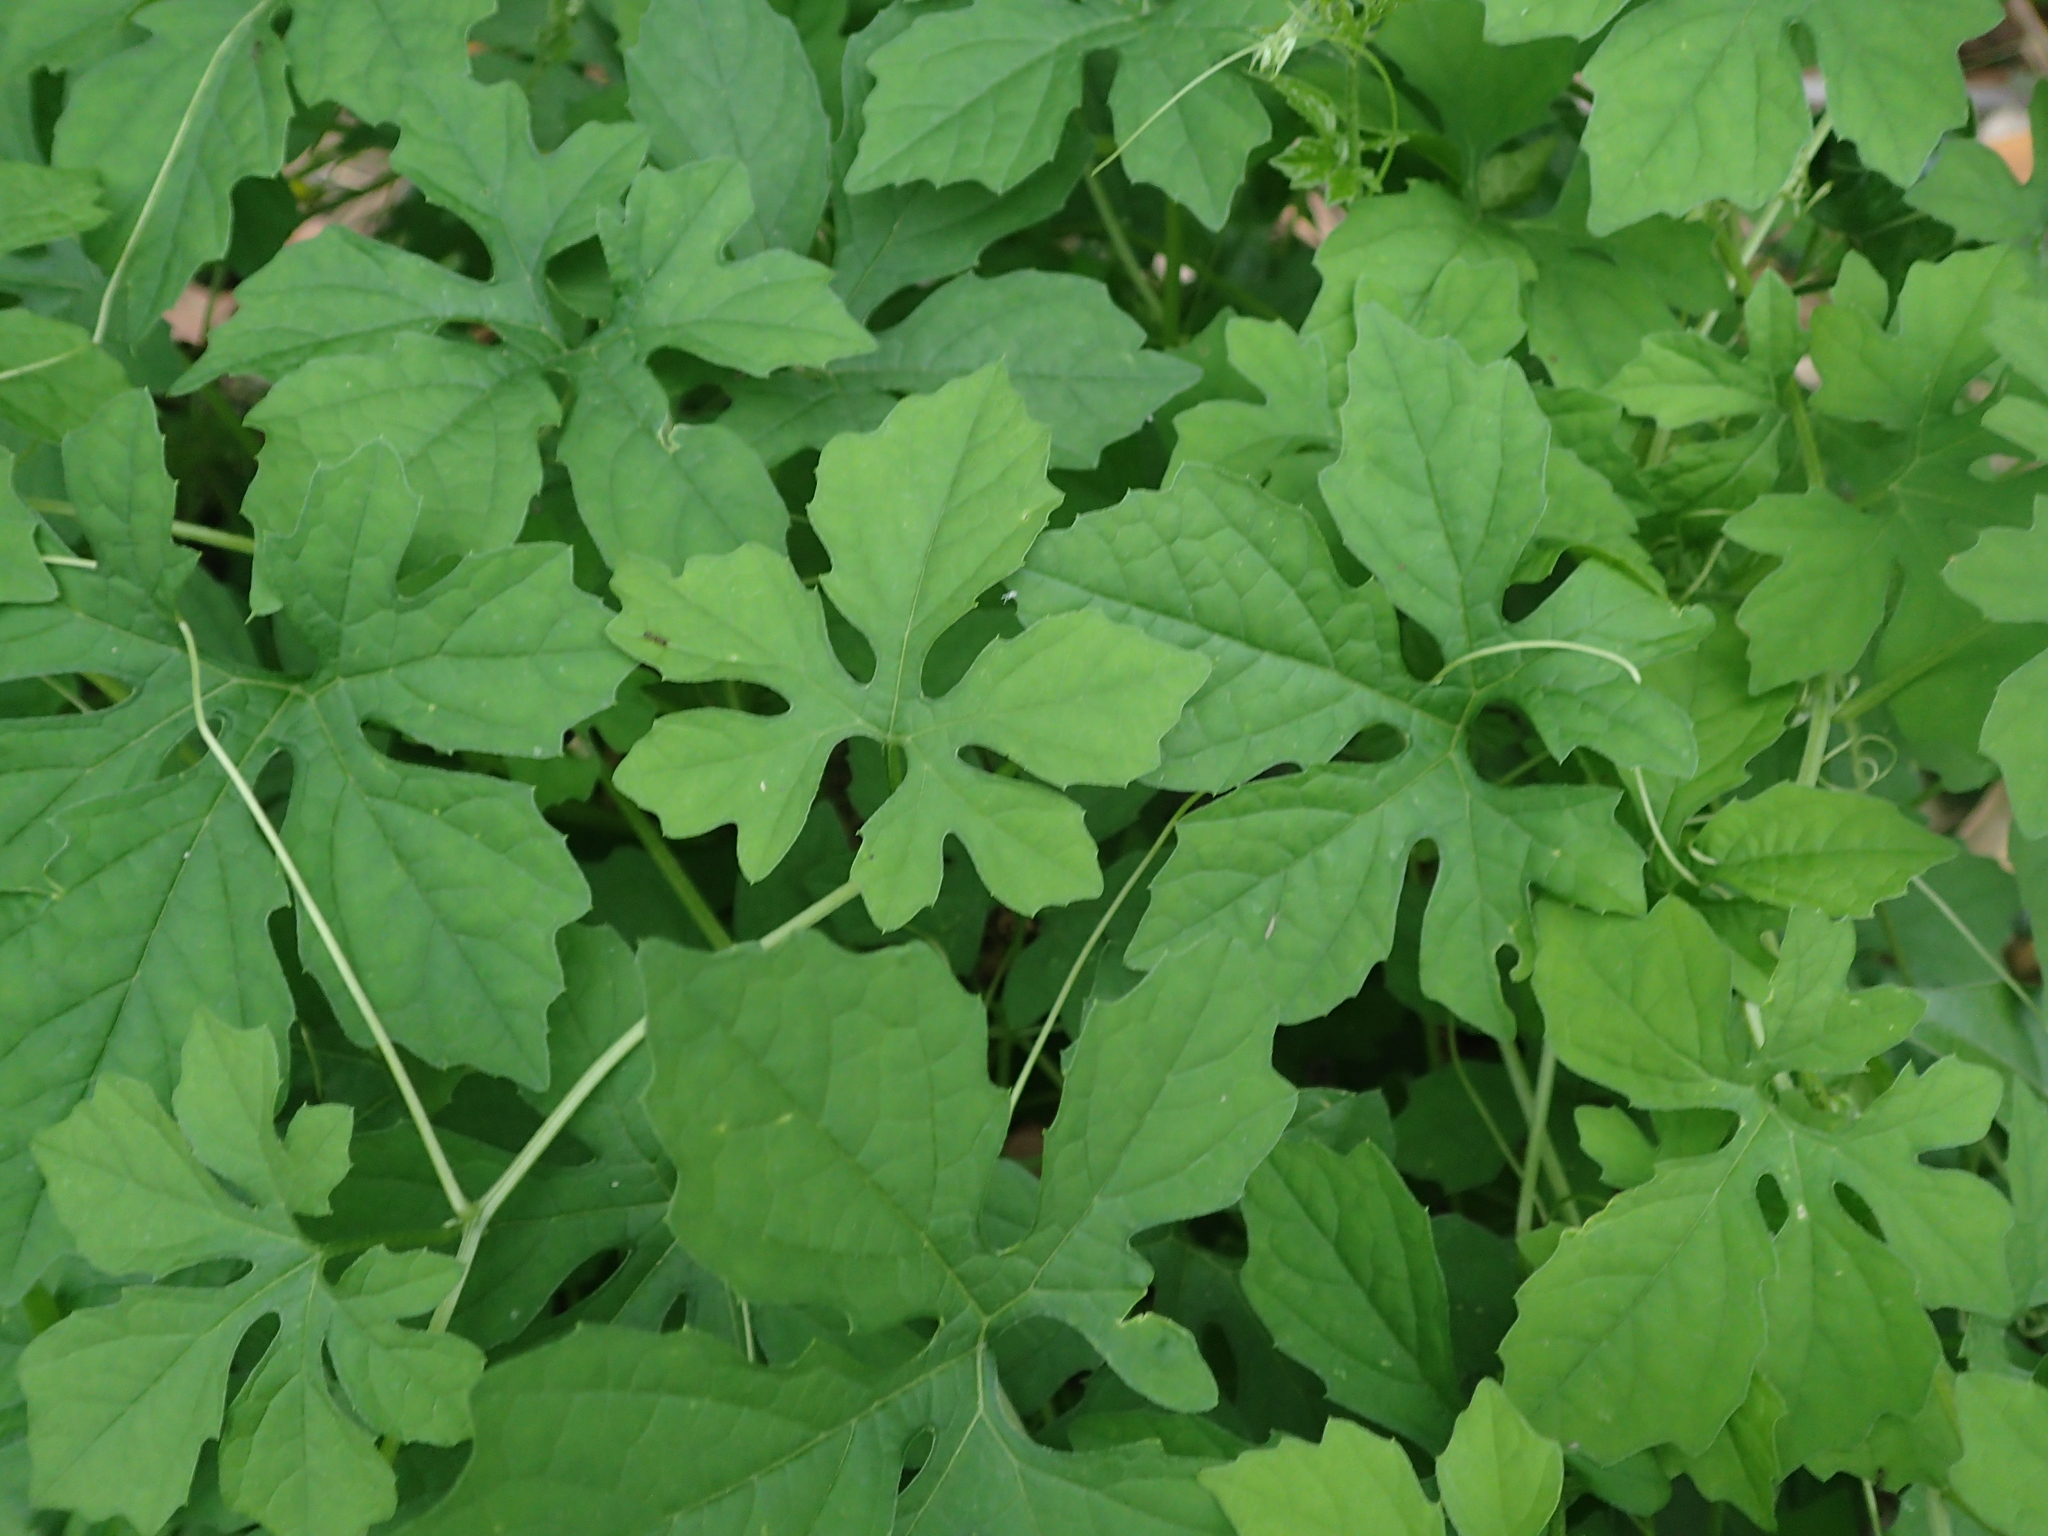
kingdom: Plantae
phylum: Tracheophyta
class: Magnoliopsida
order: Cucurbitales
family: Cucurbitaceae
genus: Momordica
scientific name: Momordica charantia
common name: Balsampear
